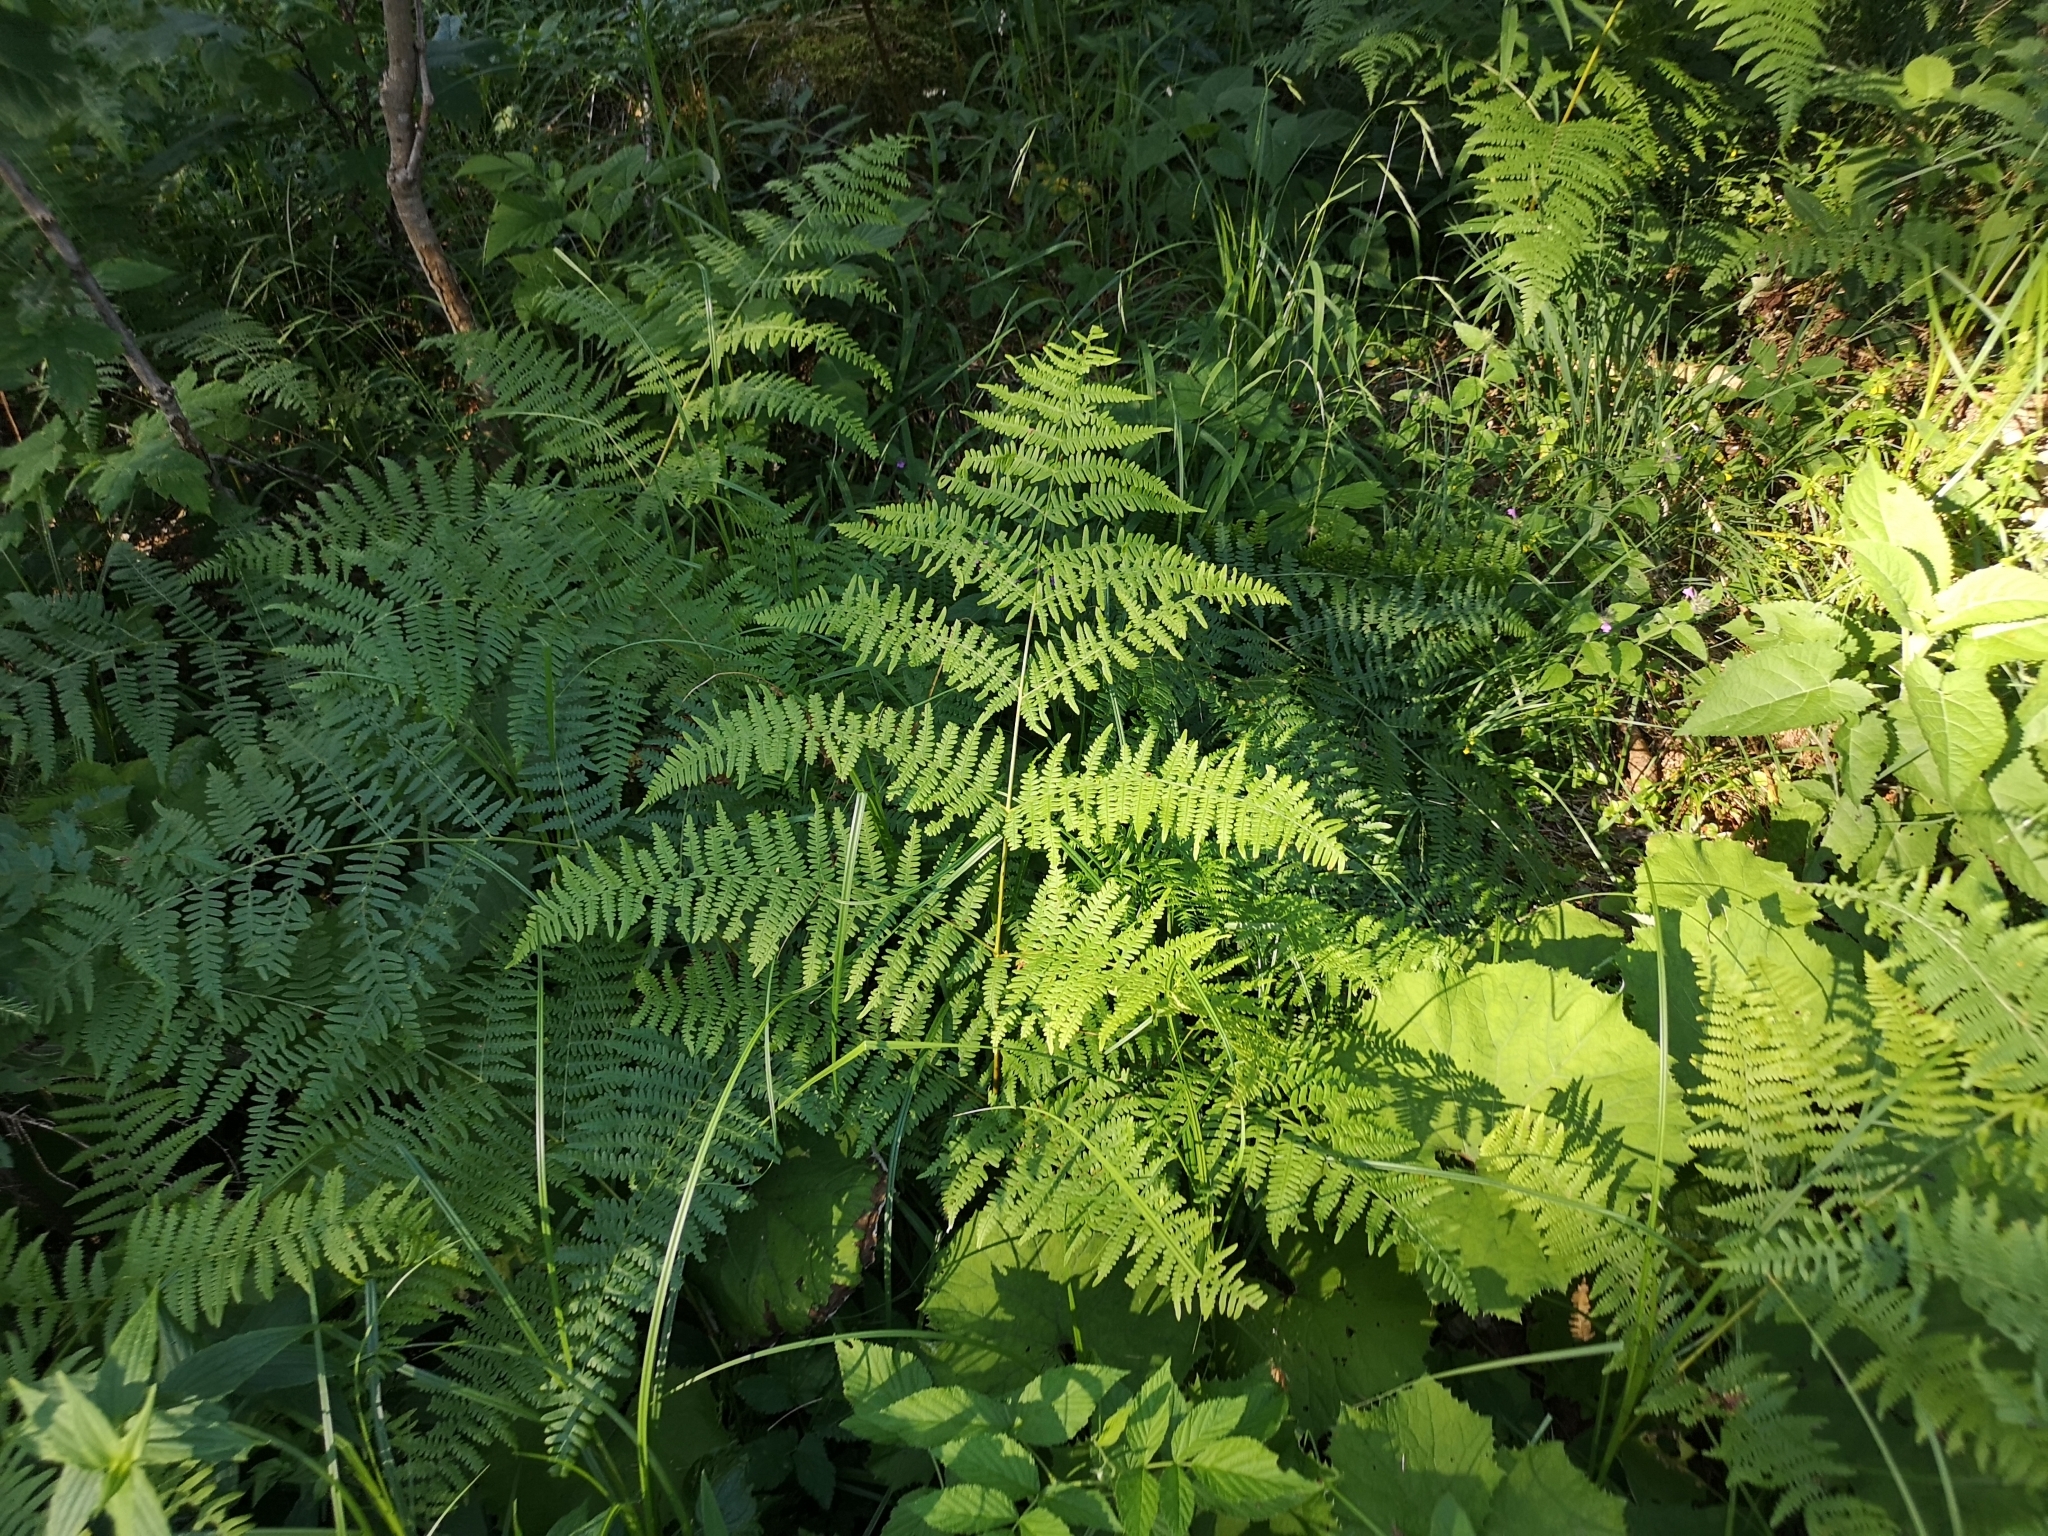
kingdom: Plantae
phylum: Tracheophyta
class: Polypodiopsida
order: Polypodiales
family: Dennstaedtiaceae
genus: Pteridium
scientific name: Pteridium aquilinum
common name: Bracken
